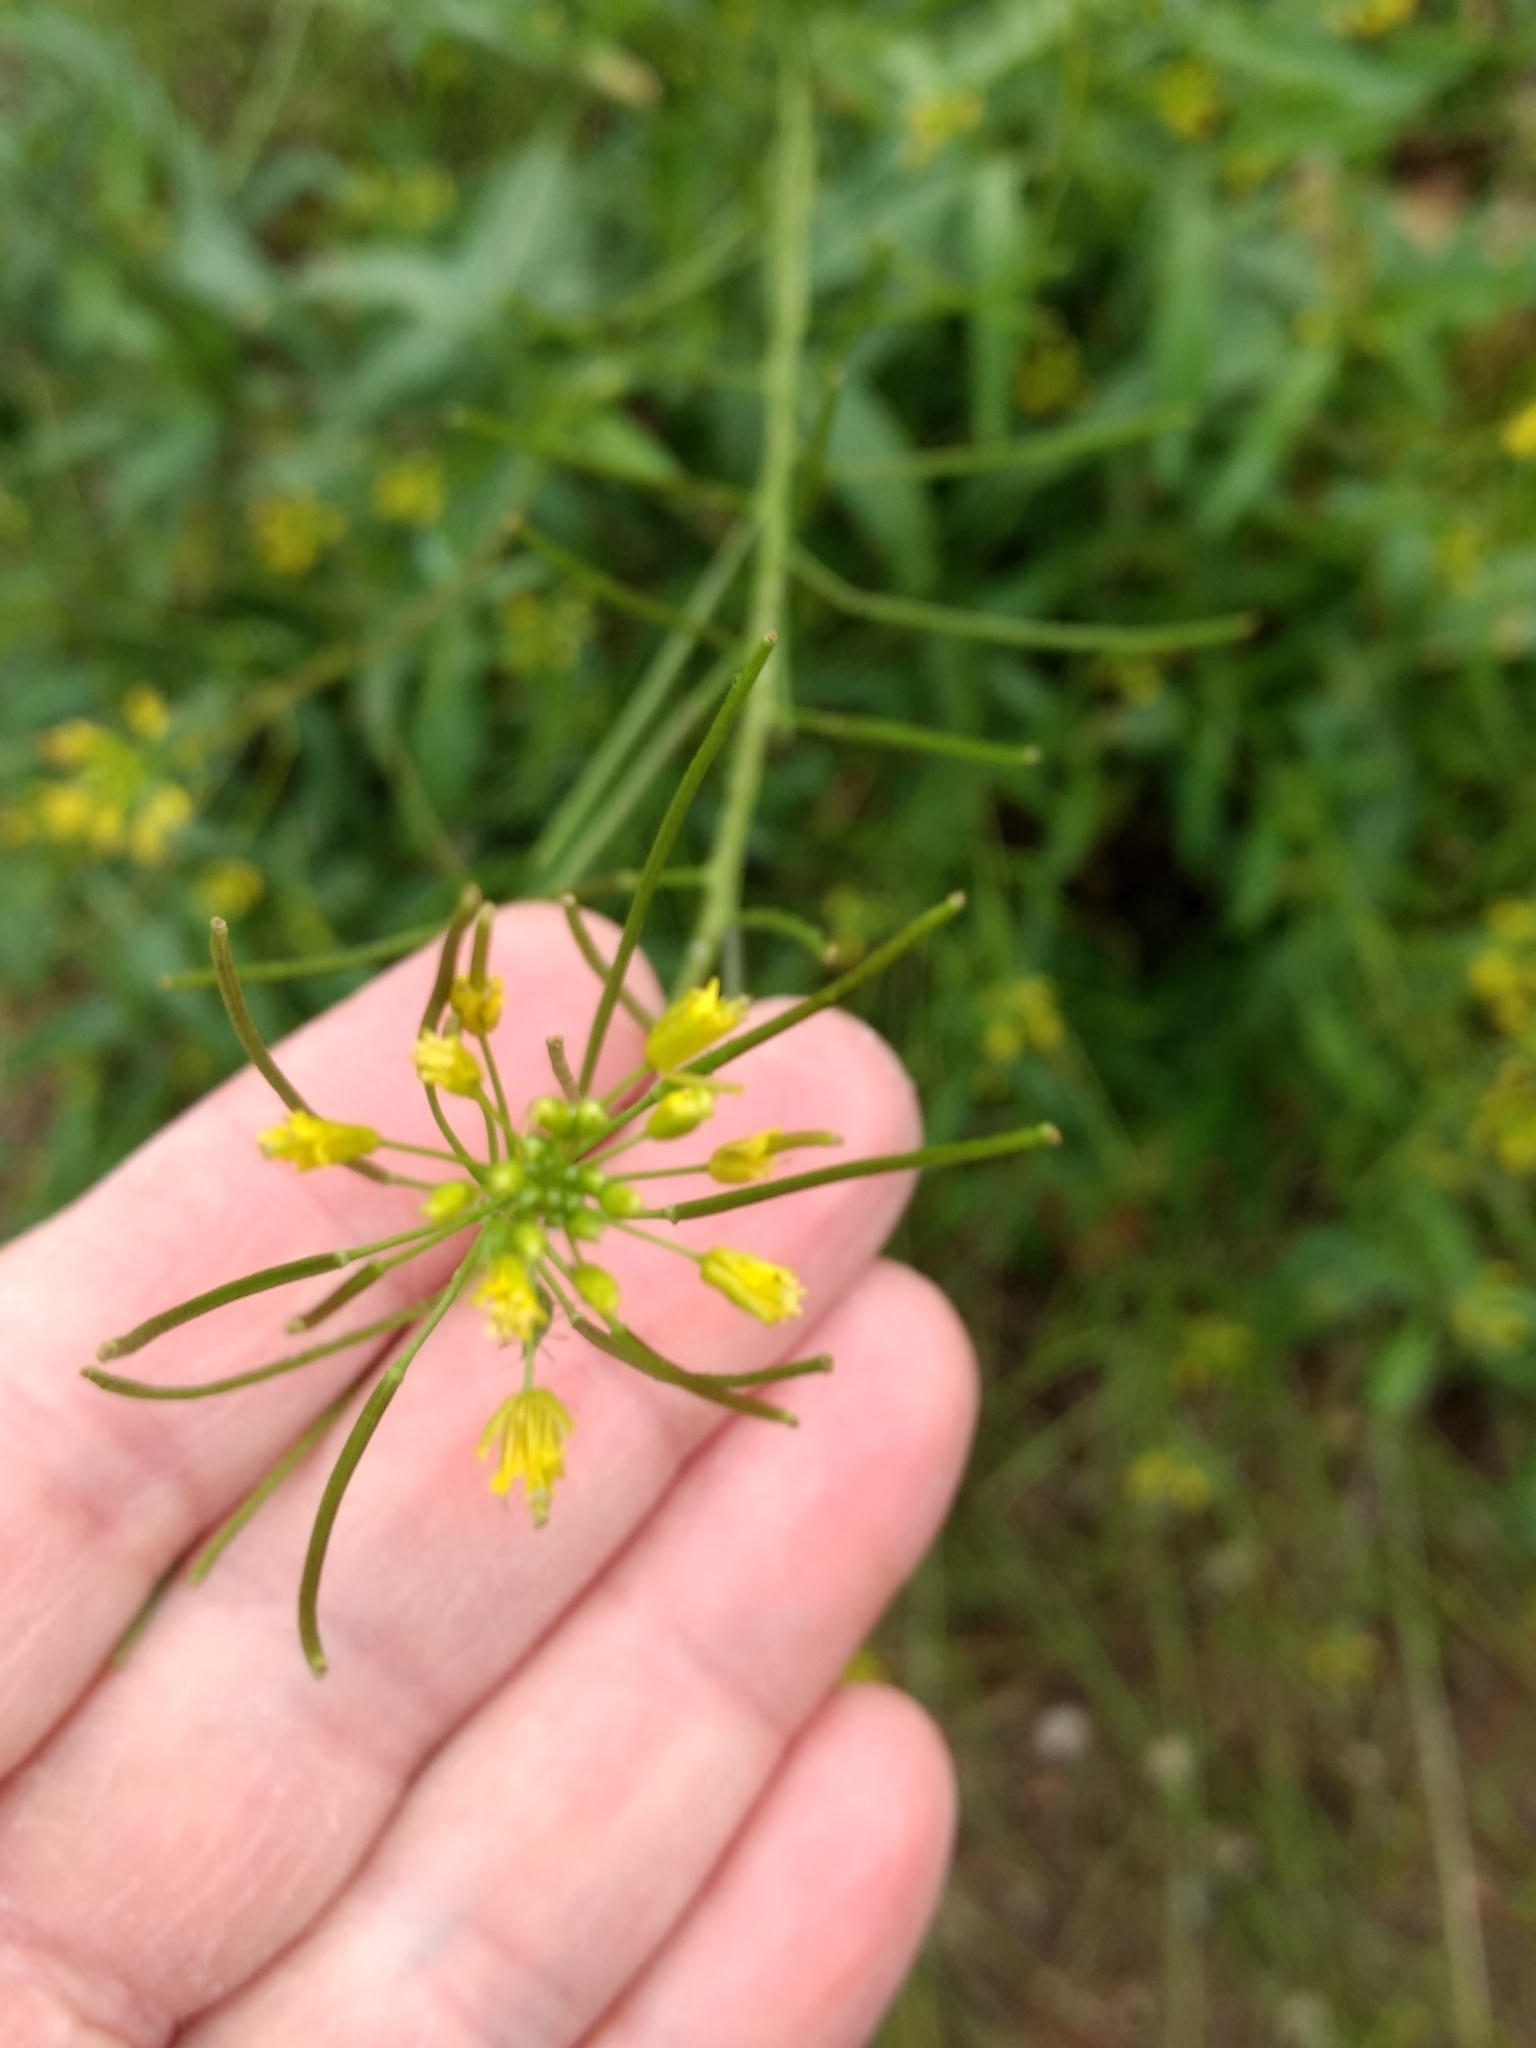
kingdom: Plantae
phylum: Tracheophyta
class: Magnoliopsida
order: Brassicales
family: Brassicaceae
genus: Sisymbrium
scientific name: Sisymbrium irio
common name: London rocket
